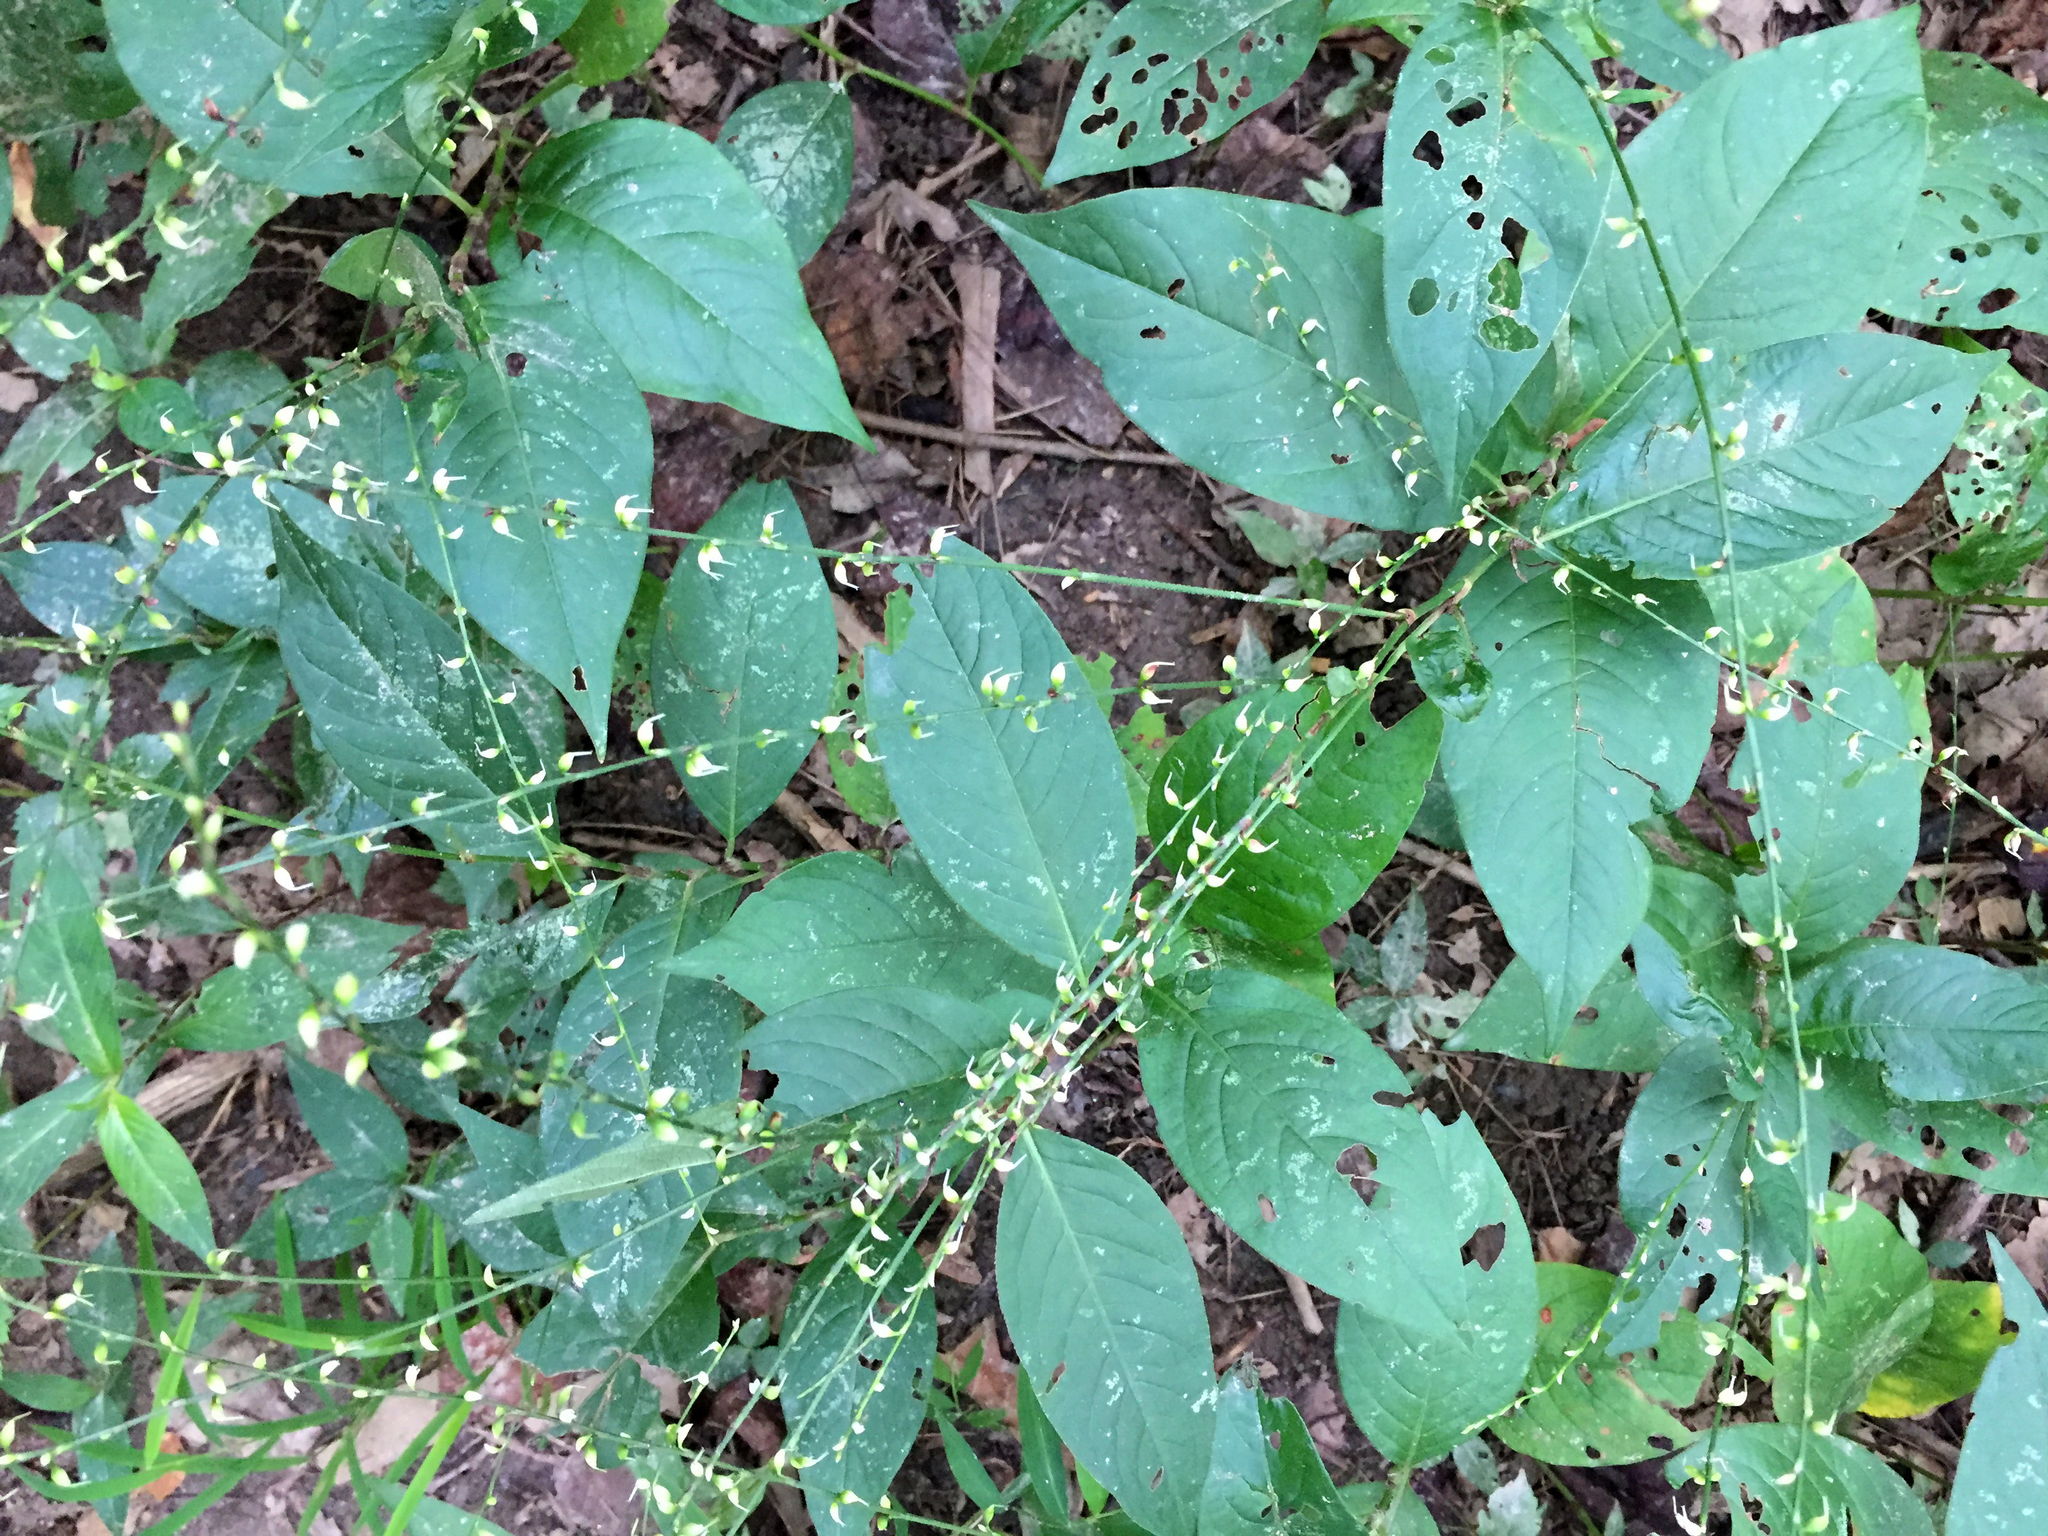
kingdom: Plantae
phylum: Tracheophyta
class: Magnoliopsida
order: Caryophyllales
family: Polygonaceae
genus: Persicaria
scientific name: Persicaria virginiana
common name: Jumpseed
